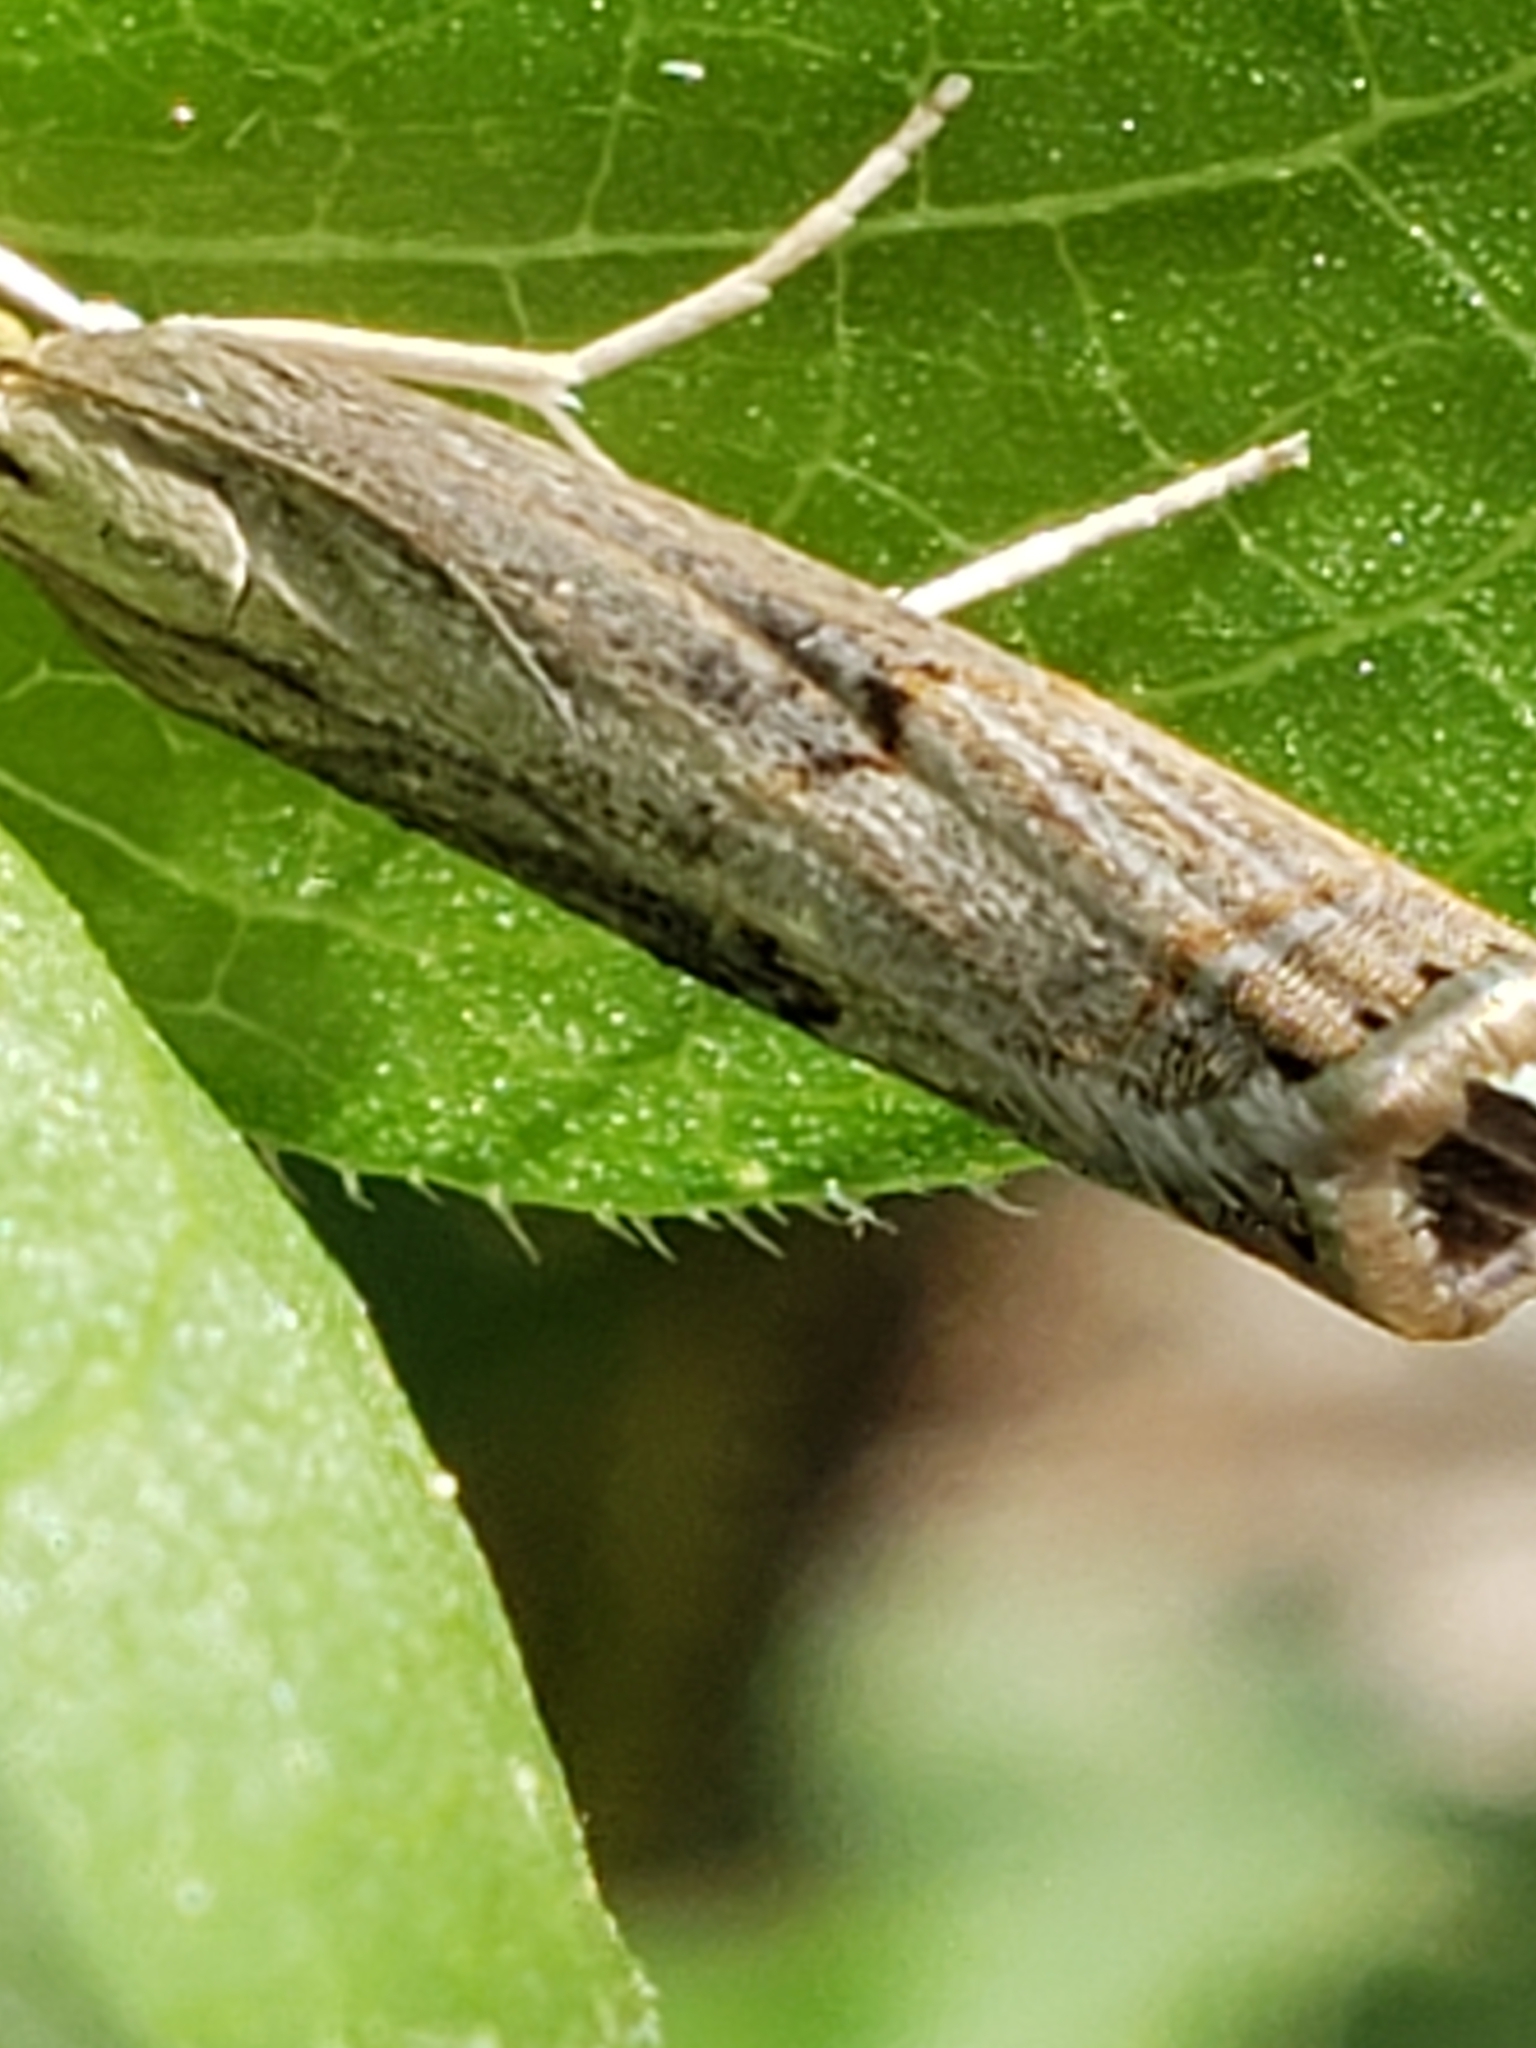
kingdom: Animalia
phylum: Arthropoda
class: Insecta
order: Lepidoptera
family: Crambidae
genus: Parapediasia
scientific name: Parapediasia teterellus
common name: Bluegrass webworm moth
